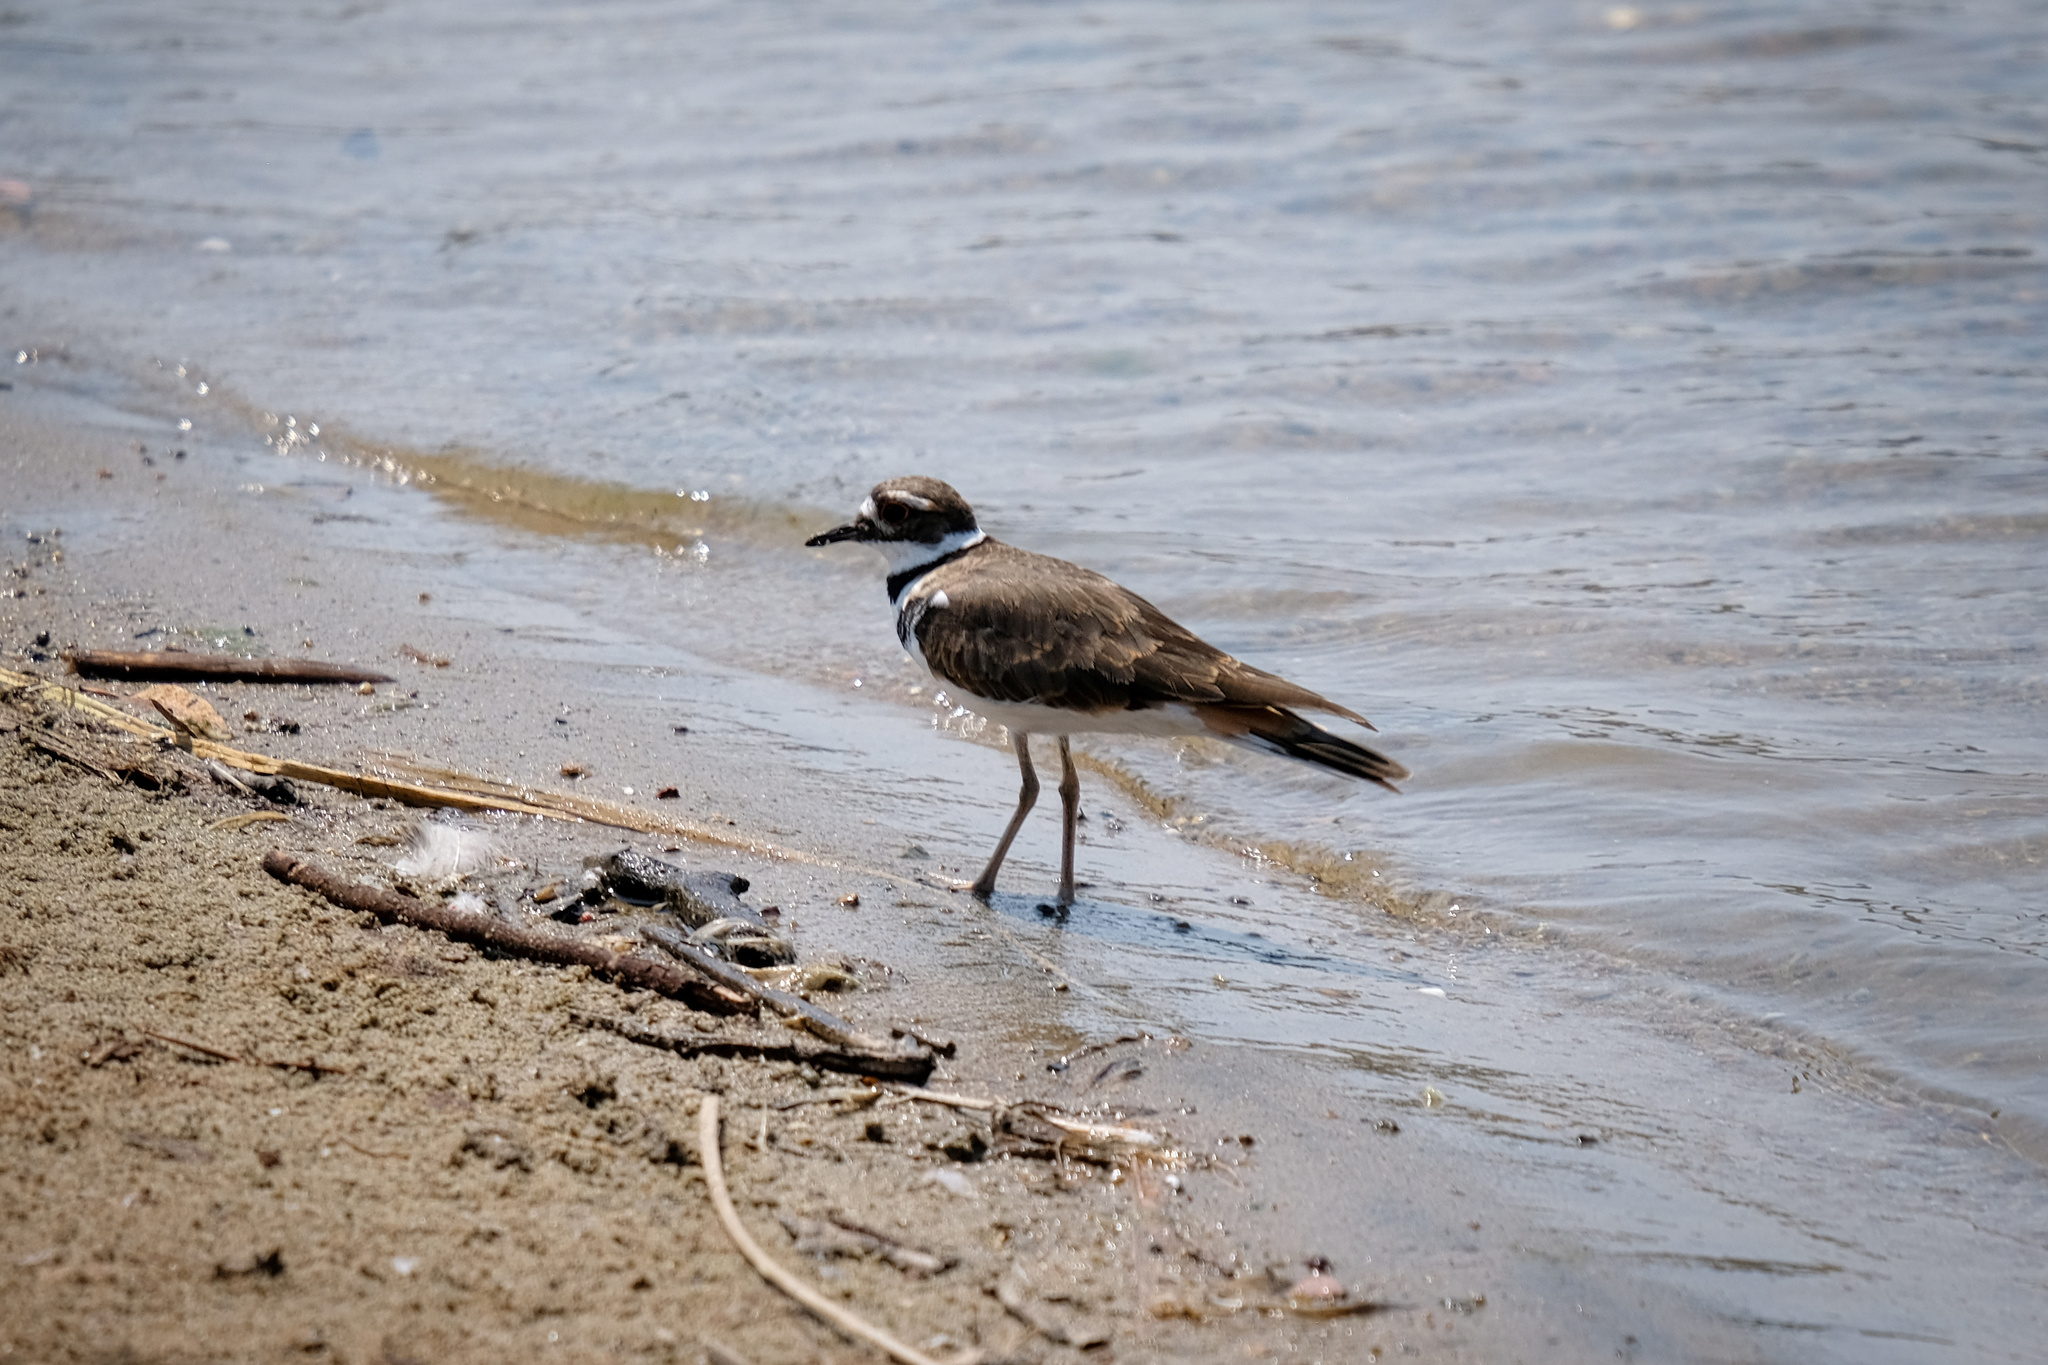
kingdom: Animalia
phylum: Chordata
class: Aves
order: Charadriiformes
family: Charadriidae
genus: Charadrius
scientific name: Charadrius vociferus
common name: Killdeer
